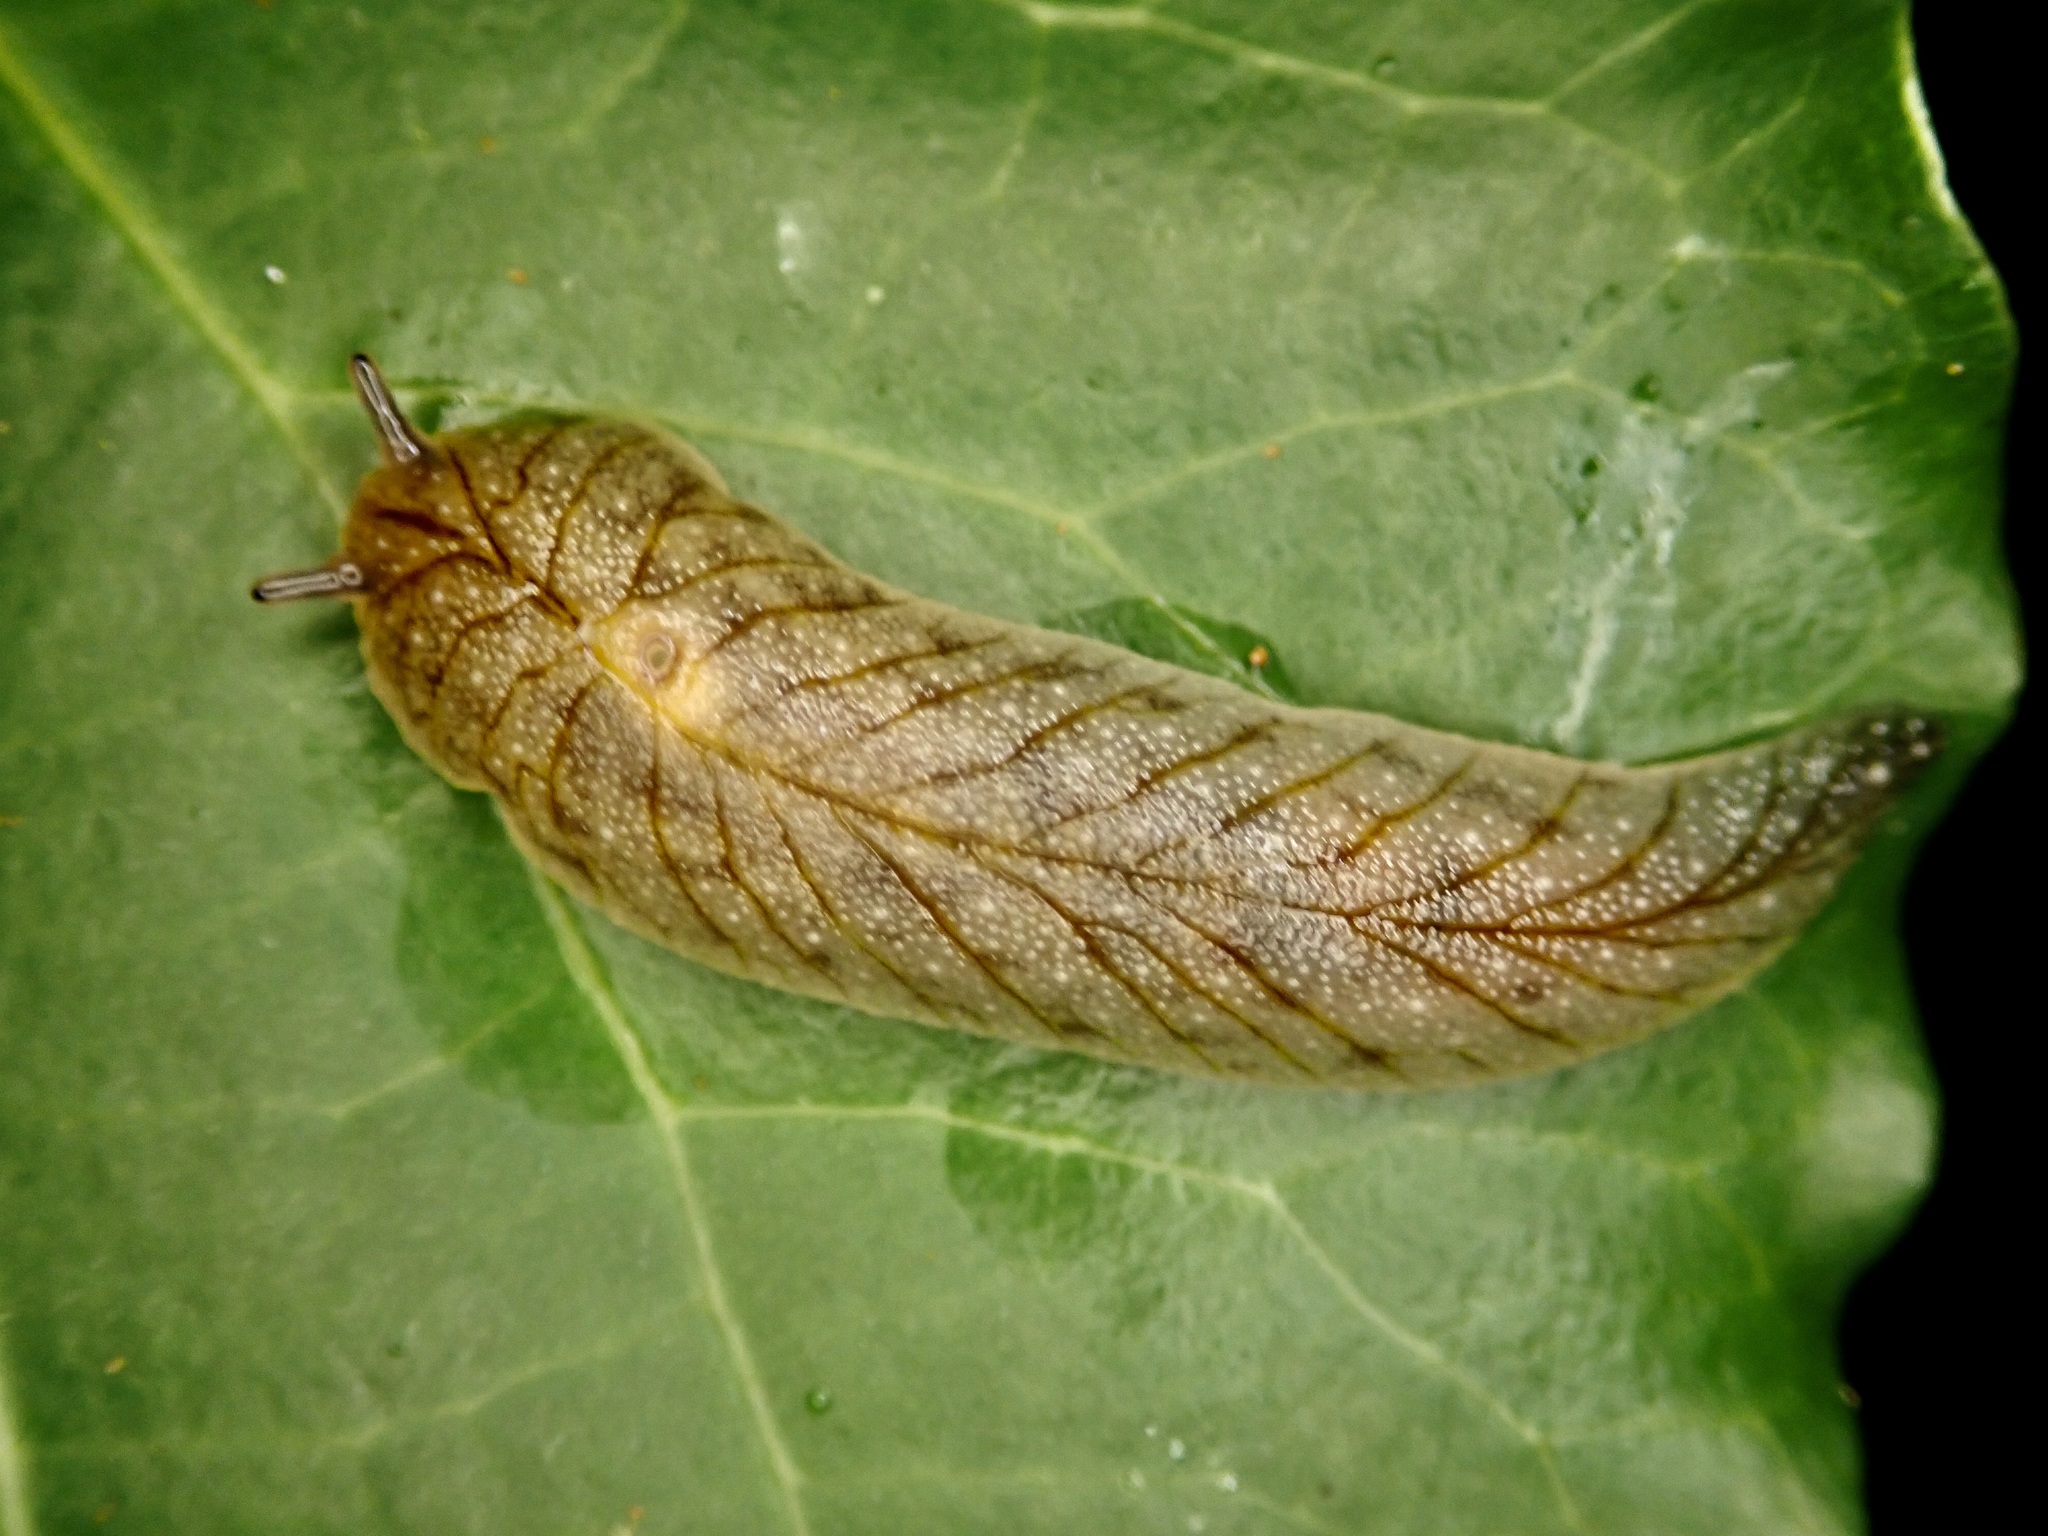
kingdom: Animalia
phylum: Mollusca
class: Gastropoda
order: Stylommatophora
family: Athoracophoridae
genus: Athoracophorus
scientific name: Athoracophorus bitentaculatus
